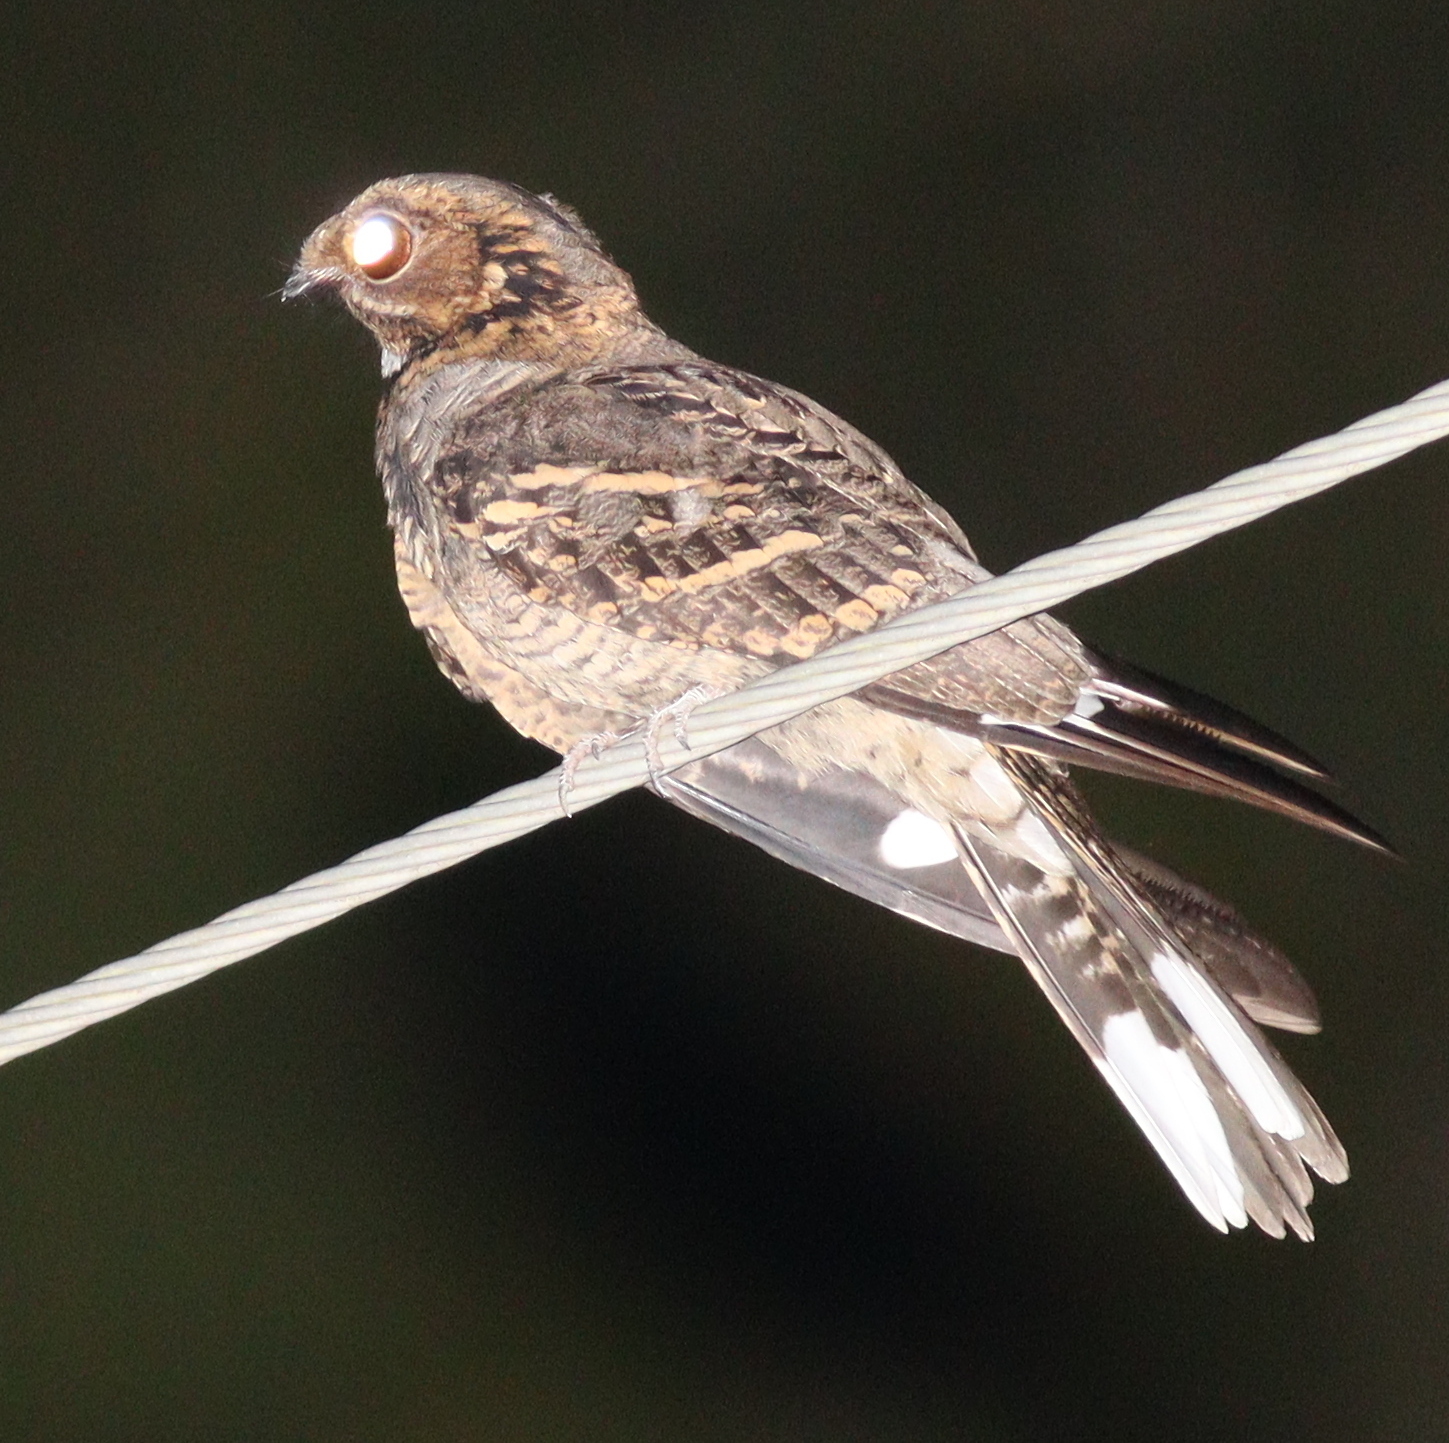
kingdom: Animalia
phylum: Chordata
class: Aves
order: Caprimulgiformes
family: Caprimulgidae
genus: Caprimulgus
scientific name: Caprimulgus macrurus
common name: Large-tailed nightjar
